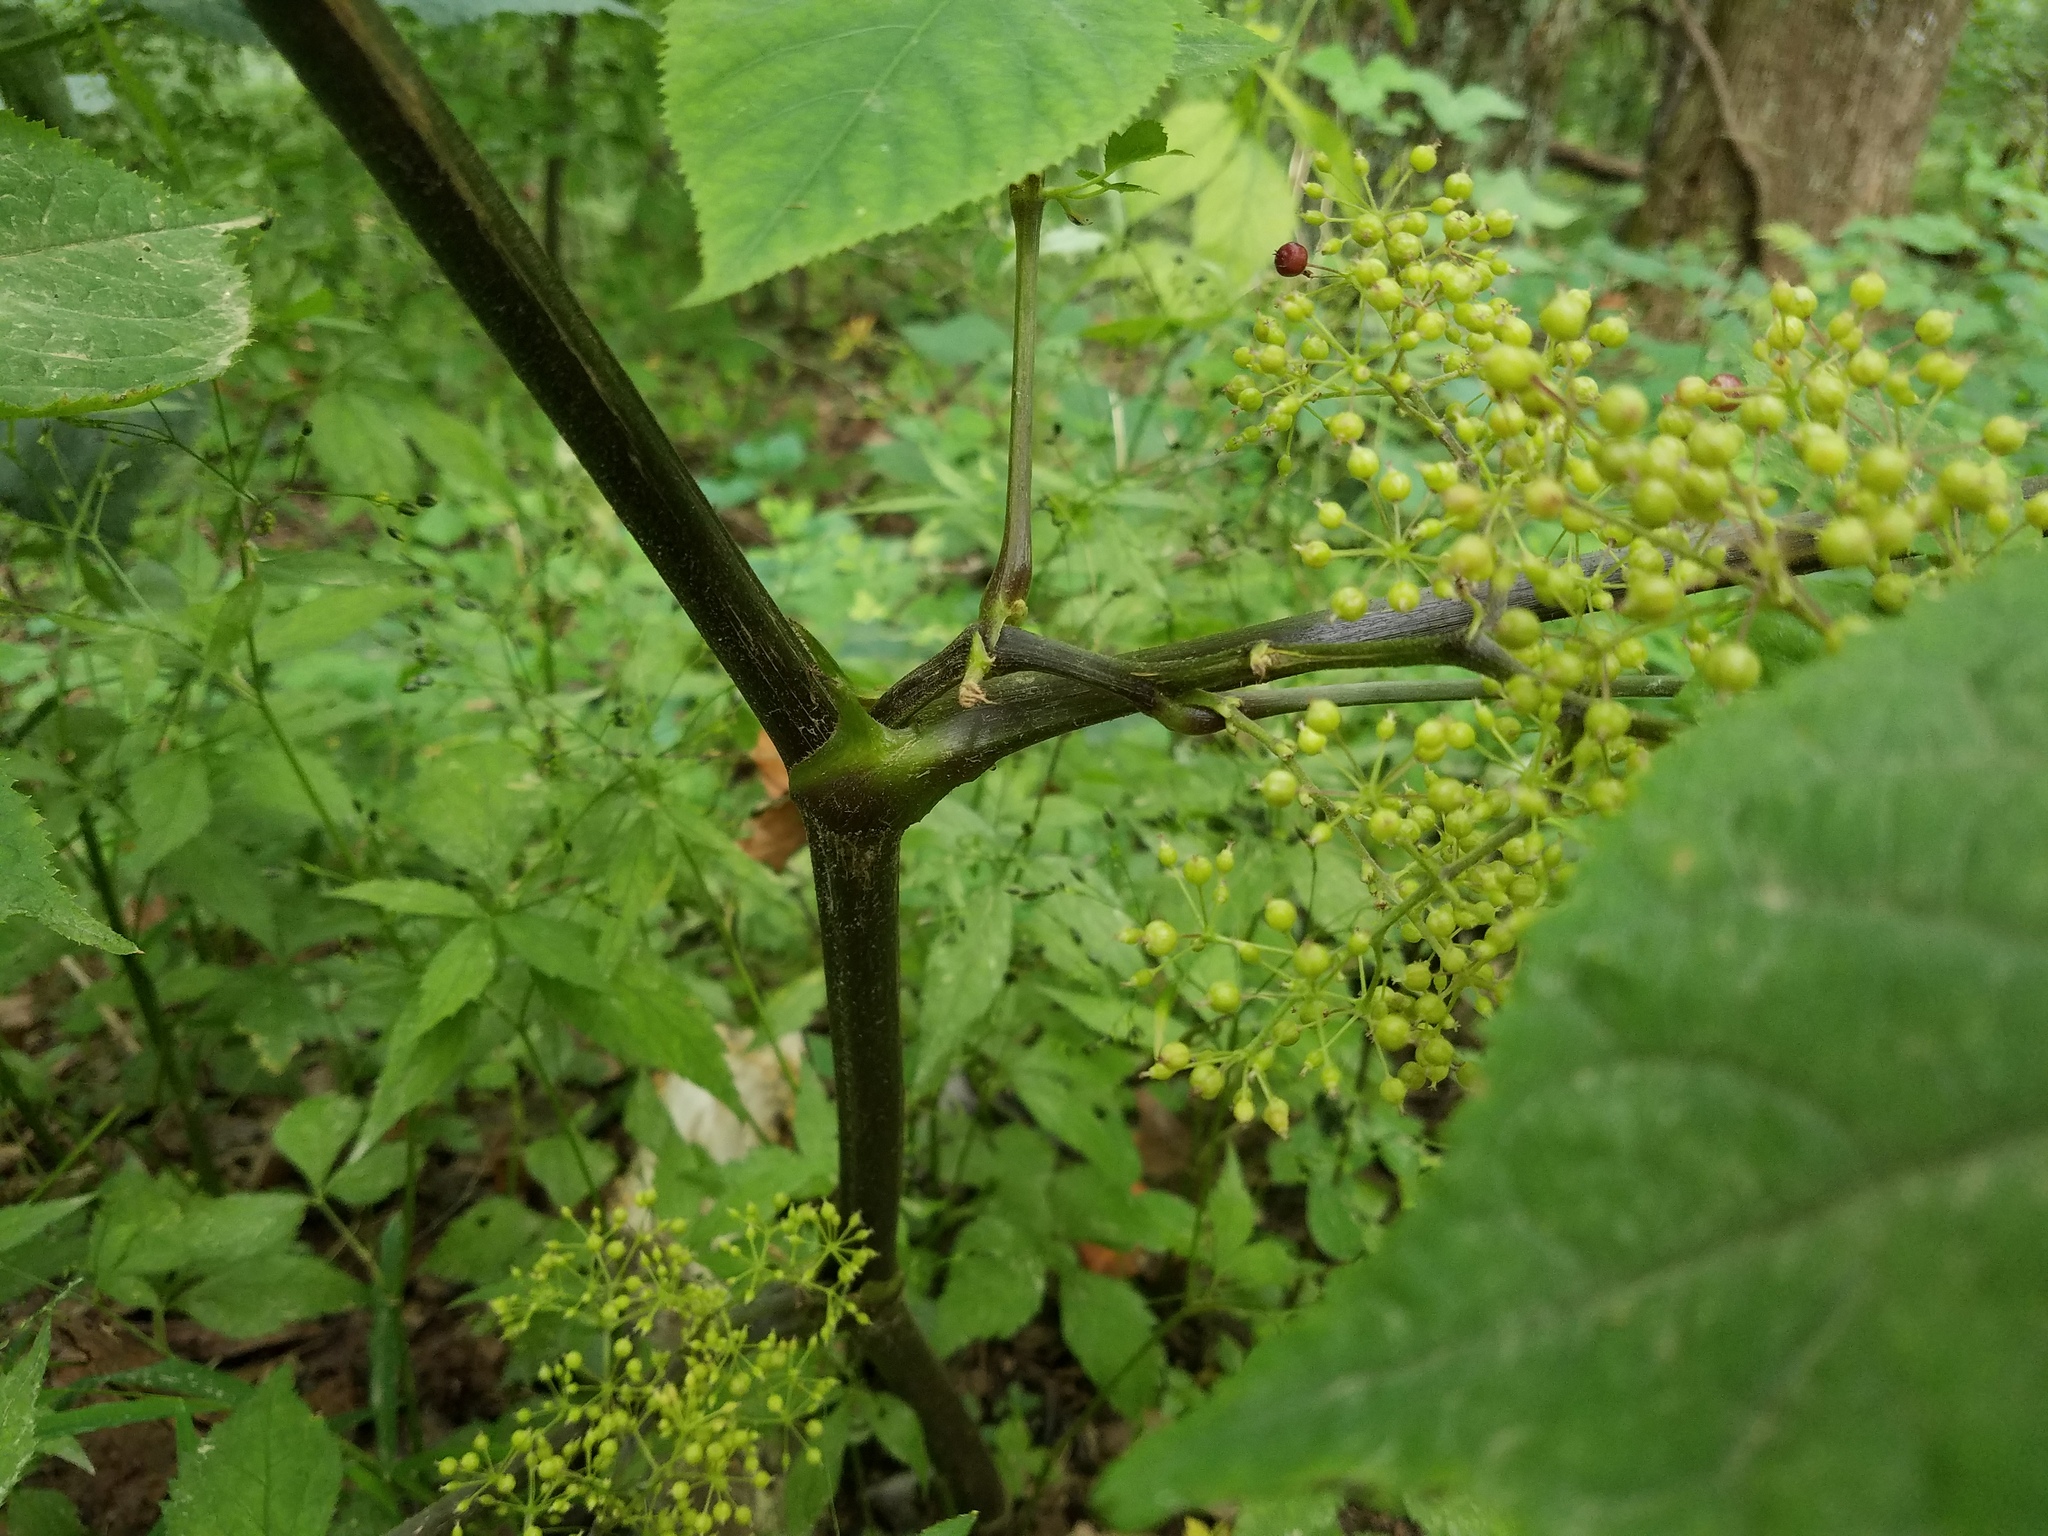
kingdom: Plantae
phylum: Tracheophyta
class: Magnoliopsida
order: Apiales
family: Araliaceae
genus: Aralia
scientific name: Aralia racemosa
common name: American-spikenard
